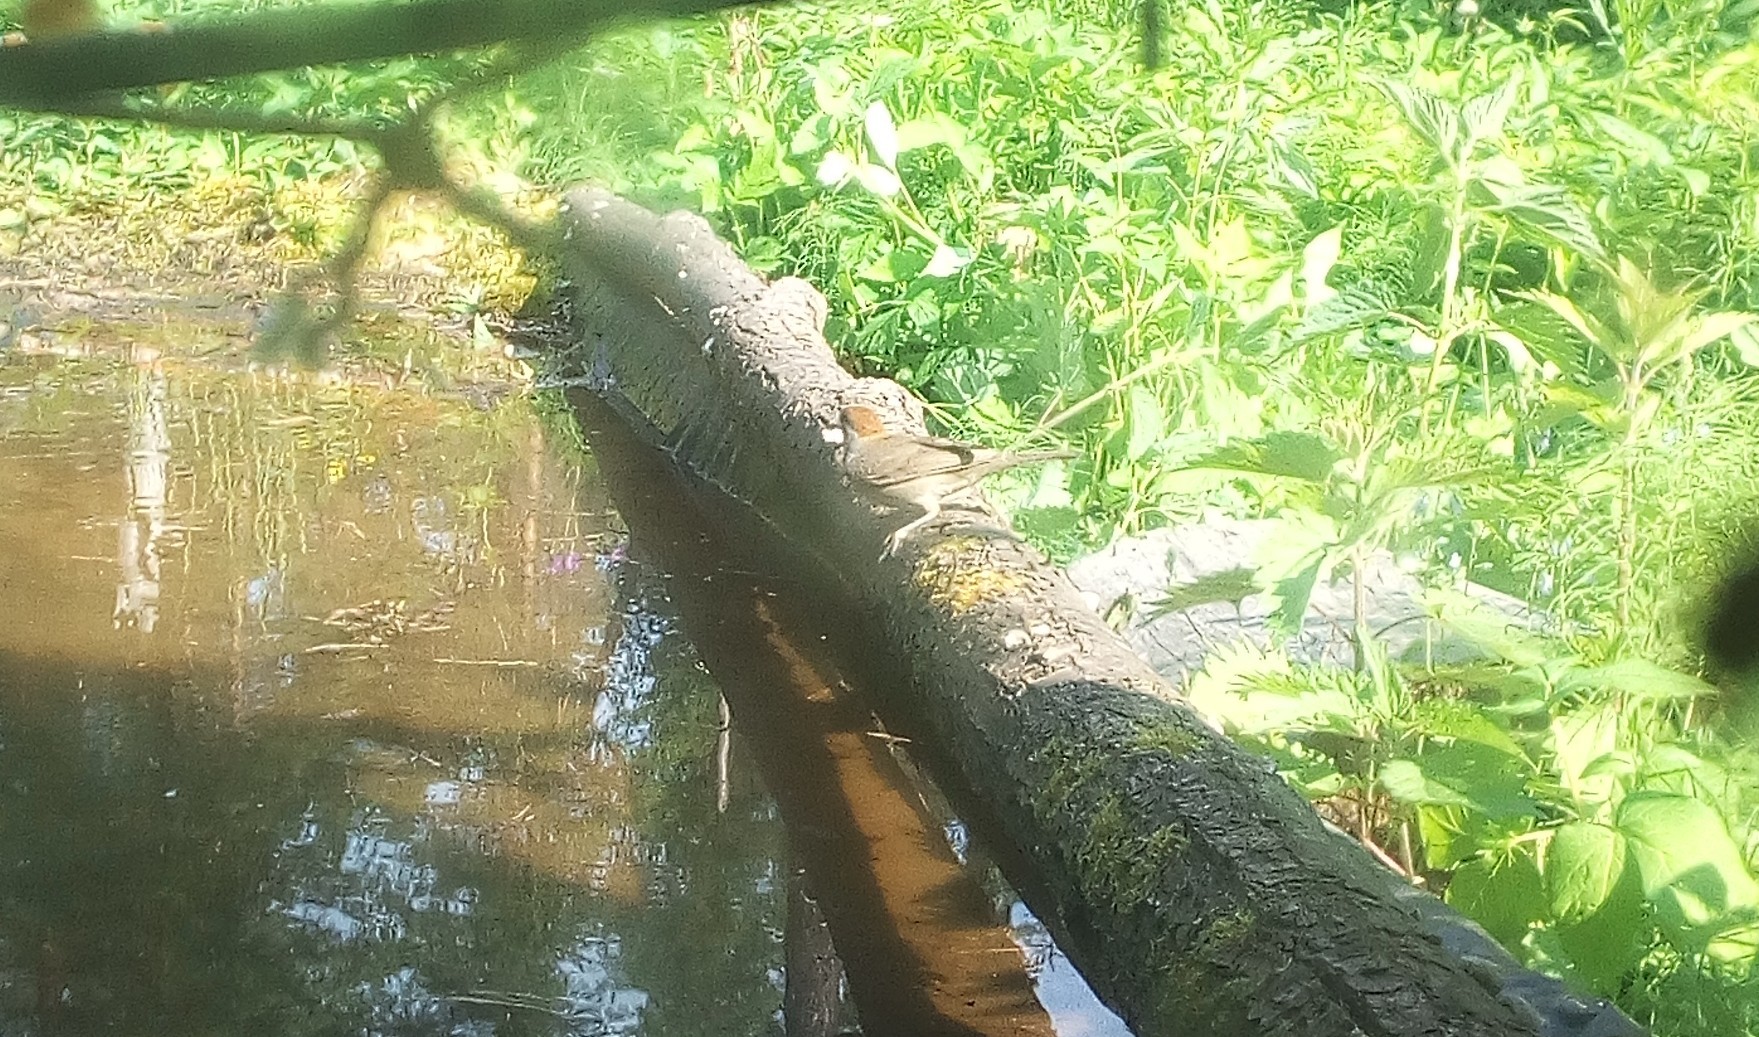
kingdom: Animalia
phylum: Chordata
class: Aves
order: Passeriformes
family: Sylviidae
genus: Sylvia
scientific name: Sylvia atricapilla
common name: Eurasian blackcap
